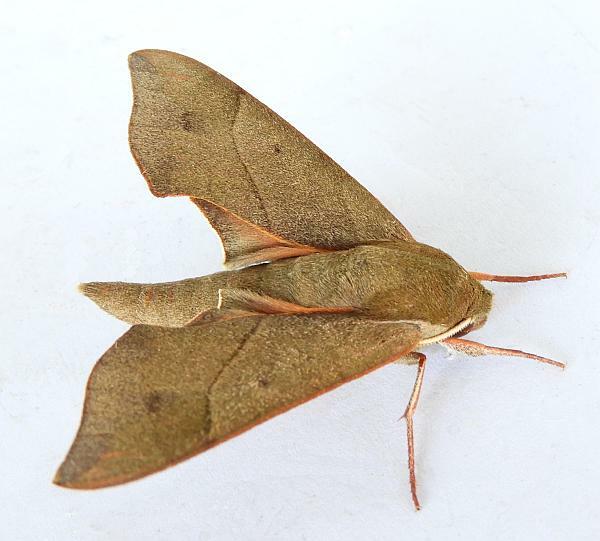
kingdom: Animalia
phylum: Arthropoda
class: Insecta
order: Lepidoptera
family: Sphingidae
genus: Darapsa
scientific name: Darapsa myron
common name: Hog sphinx
